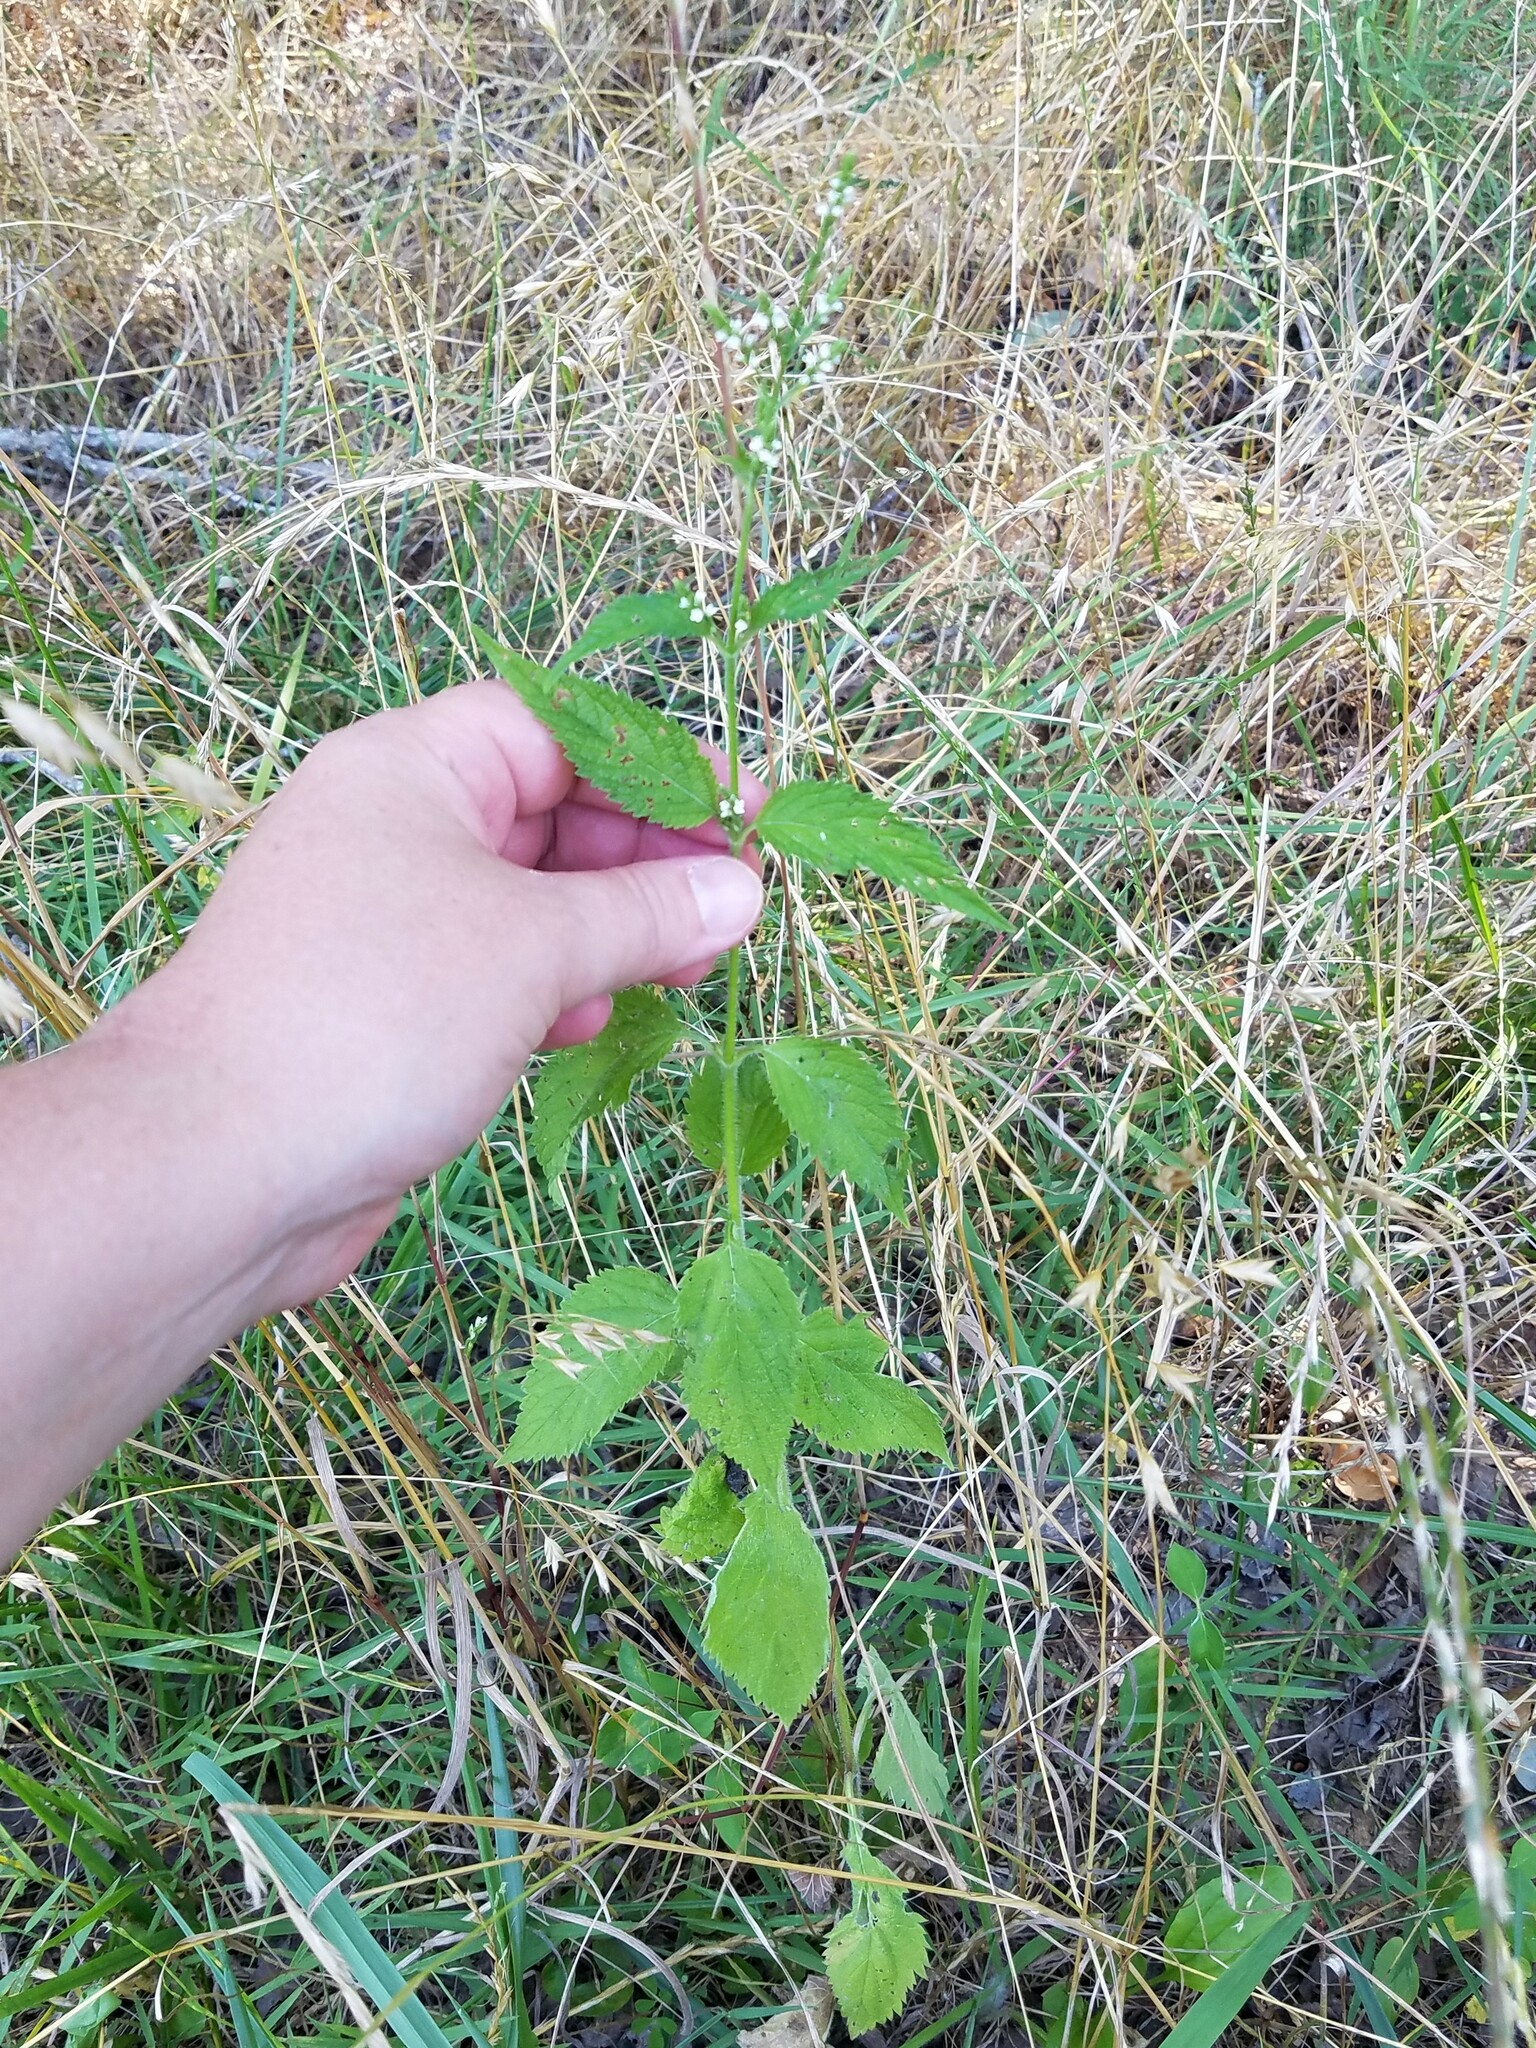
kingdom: Plantae
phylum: Tracheophyta
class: Magnoliopsida
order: Lamiales
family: Verbenaceae
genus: Verbena
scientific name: Verbena urticifolia
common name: Nettle-leaved vervain
